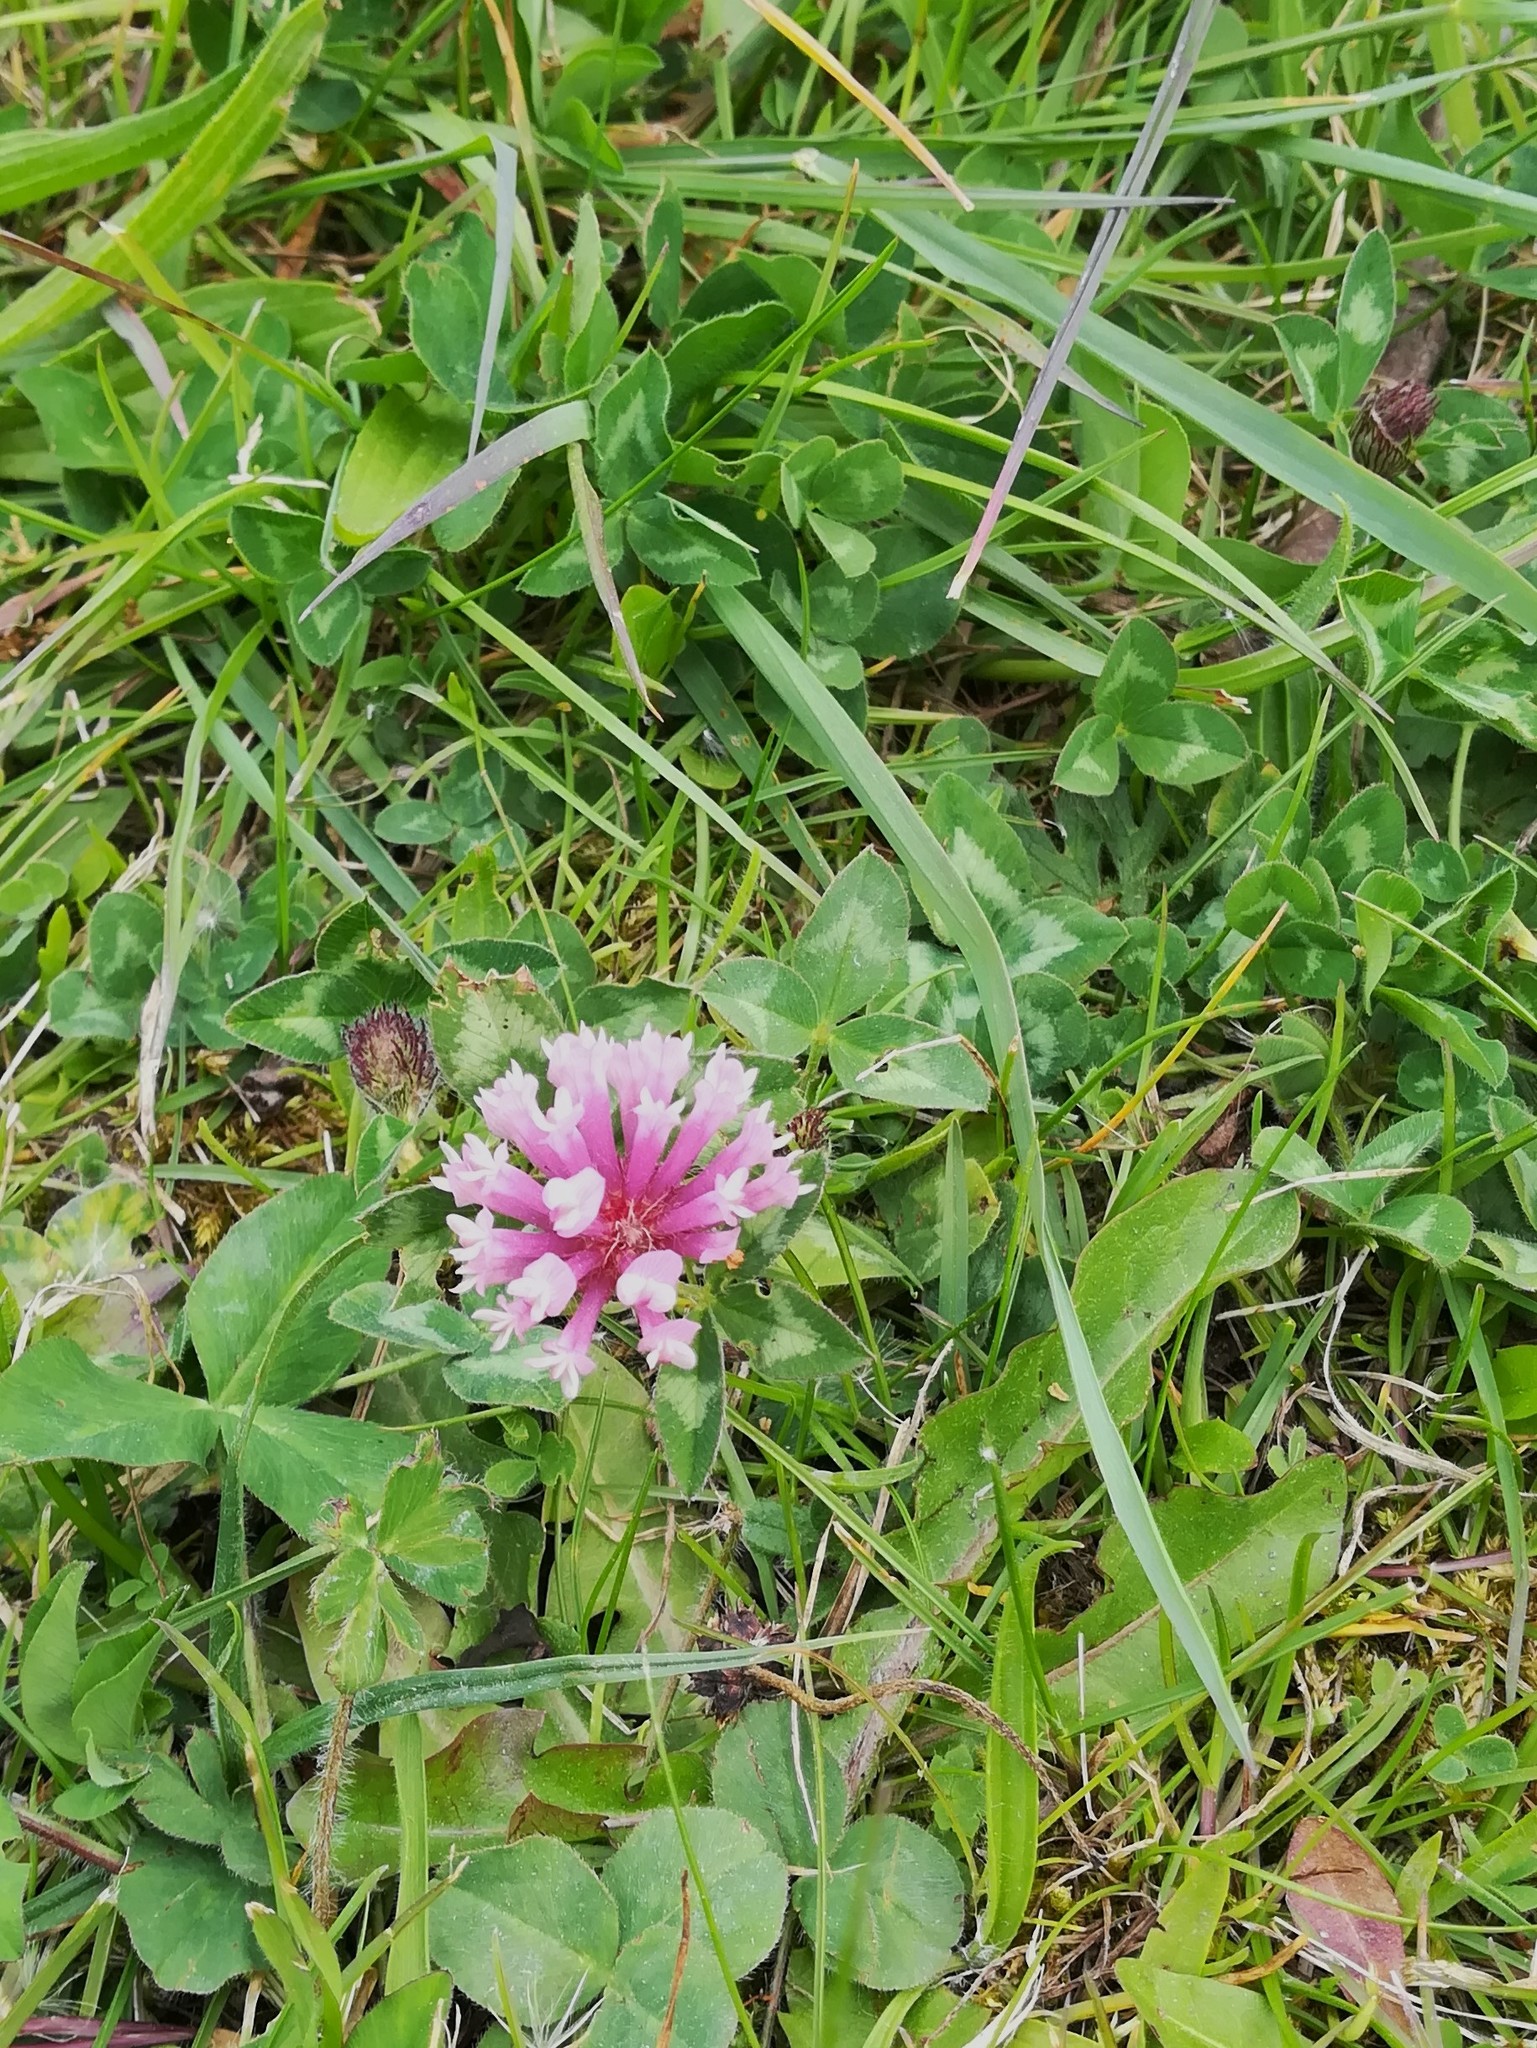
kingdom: Plantae
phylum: Tracheophyta
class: Magnoliopsida
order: Fabales
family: Fabaceae
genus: Trifolium
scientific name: Trifolium pratense
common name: Red clover
